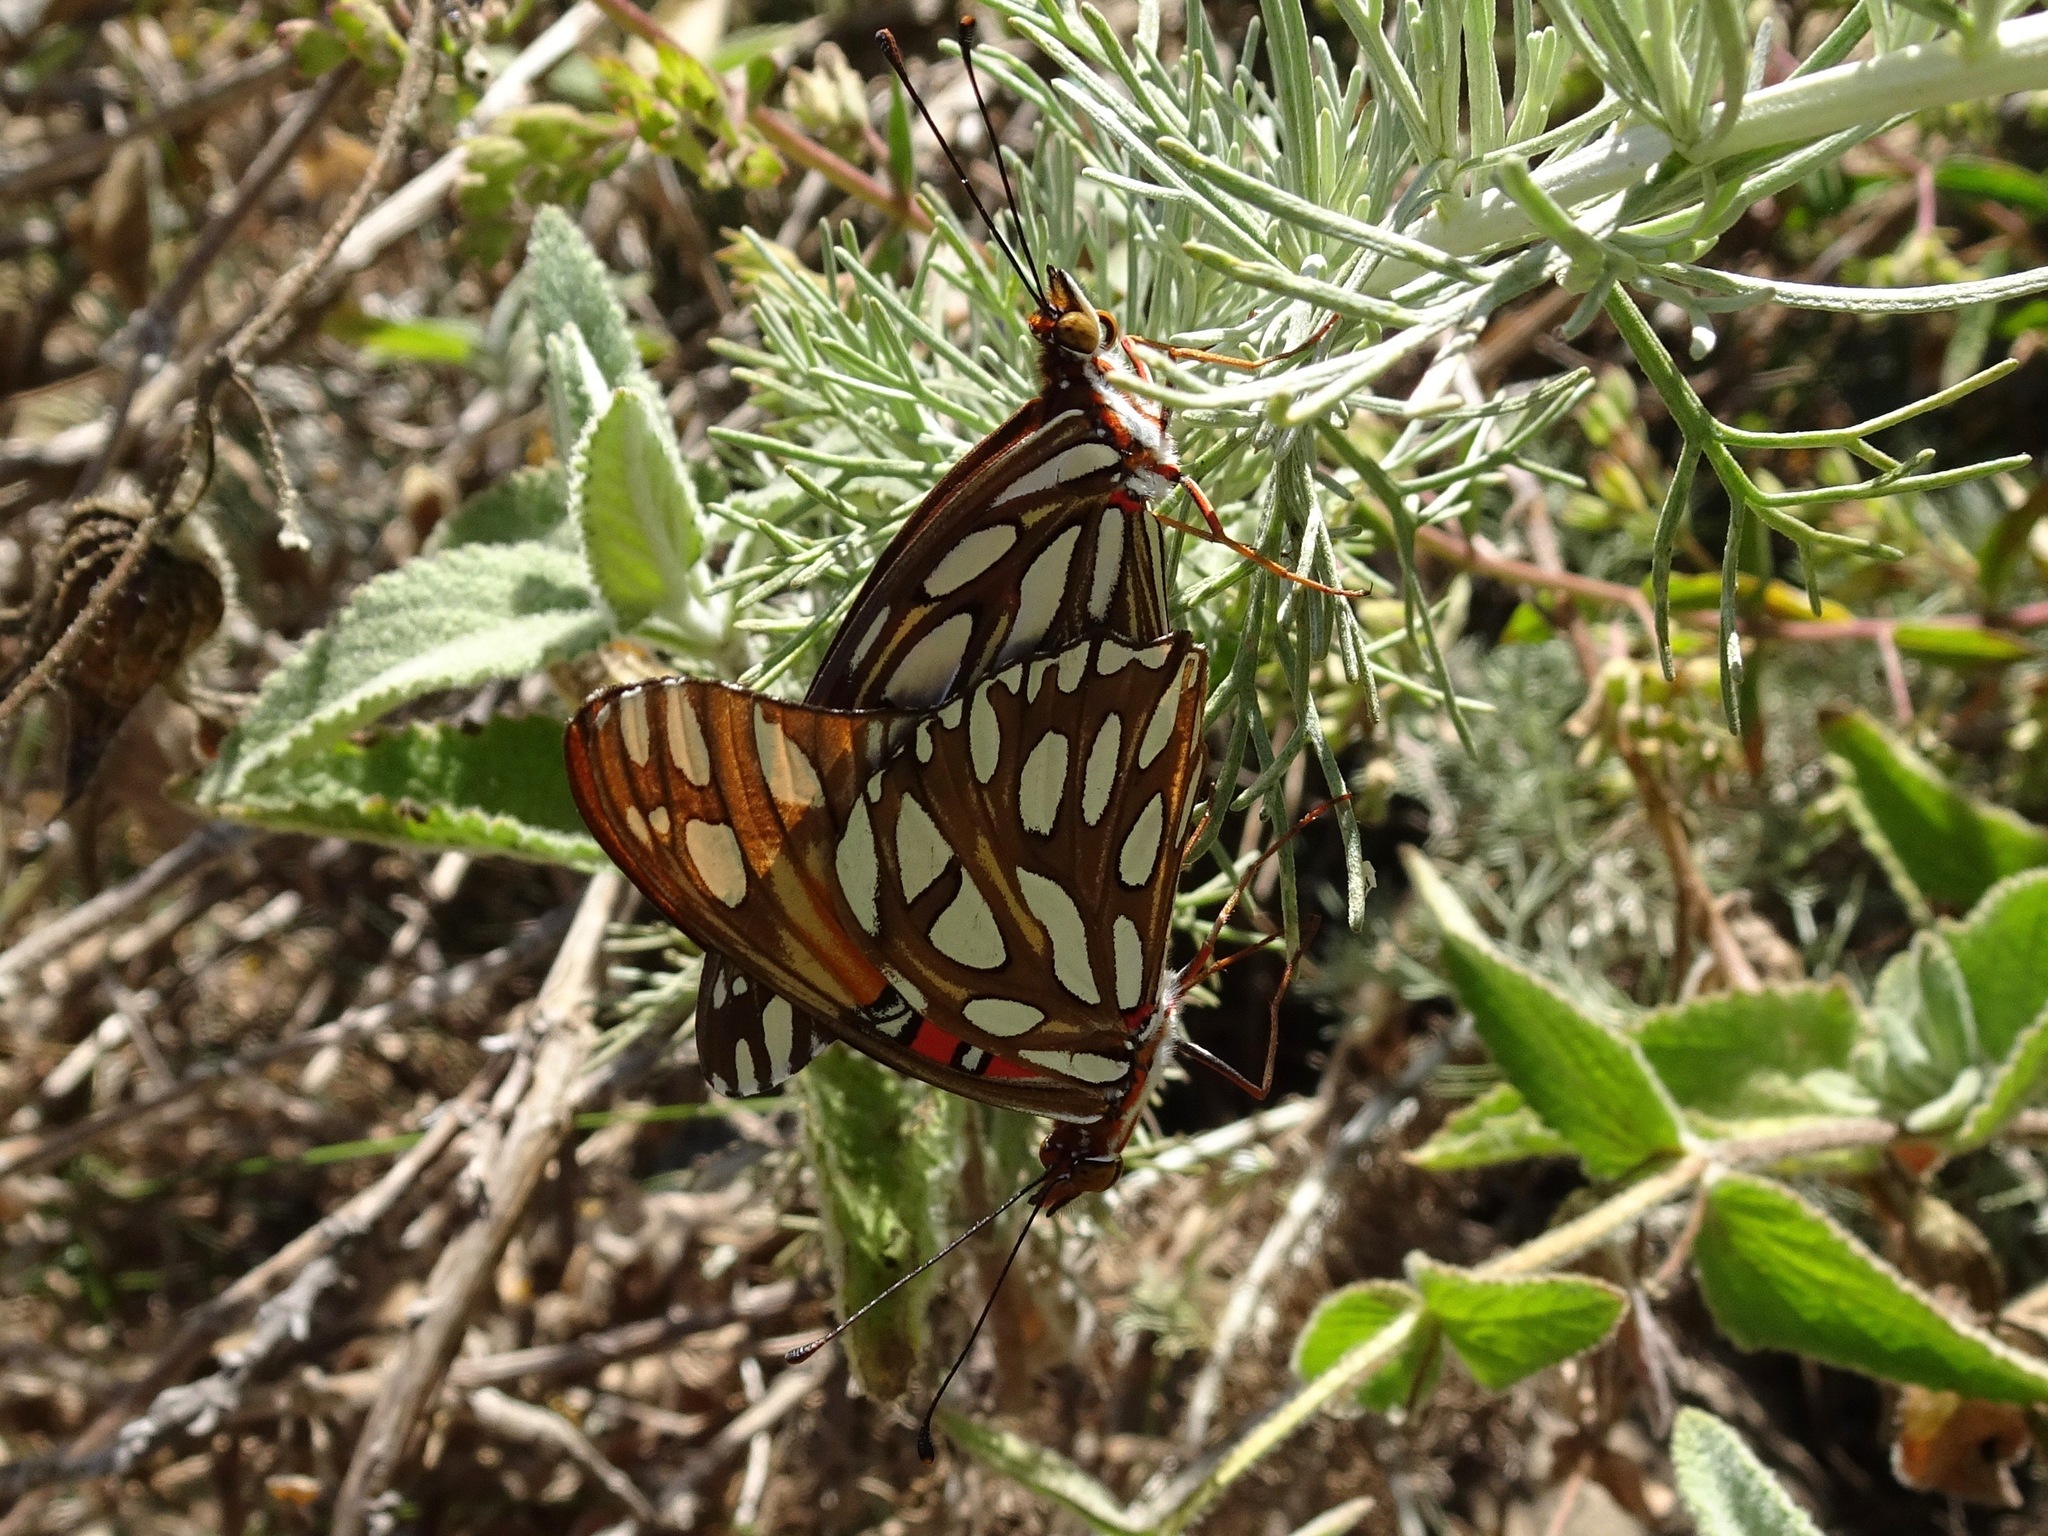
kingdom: Animalia
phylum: Arthropoda
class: Insecta
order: Lepidoptera
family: Nymphalidae
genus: Dione
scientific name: Dione vanillae
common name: Gulf fritillary
